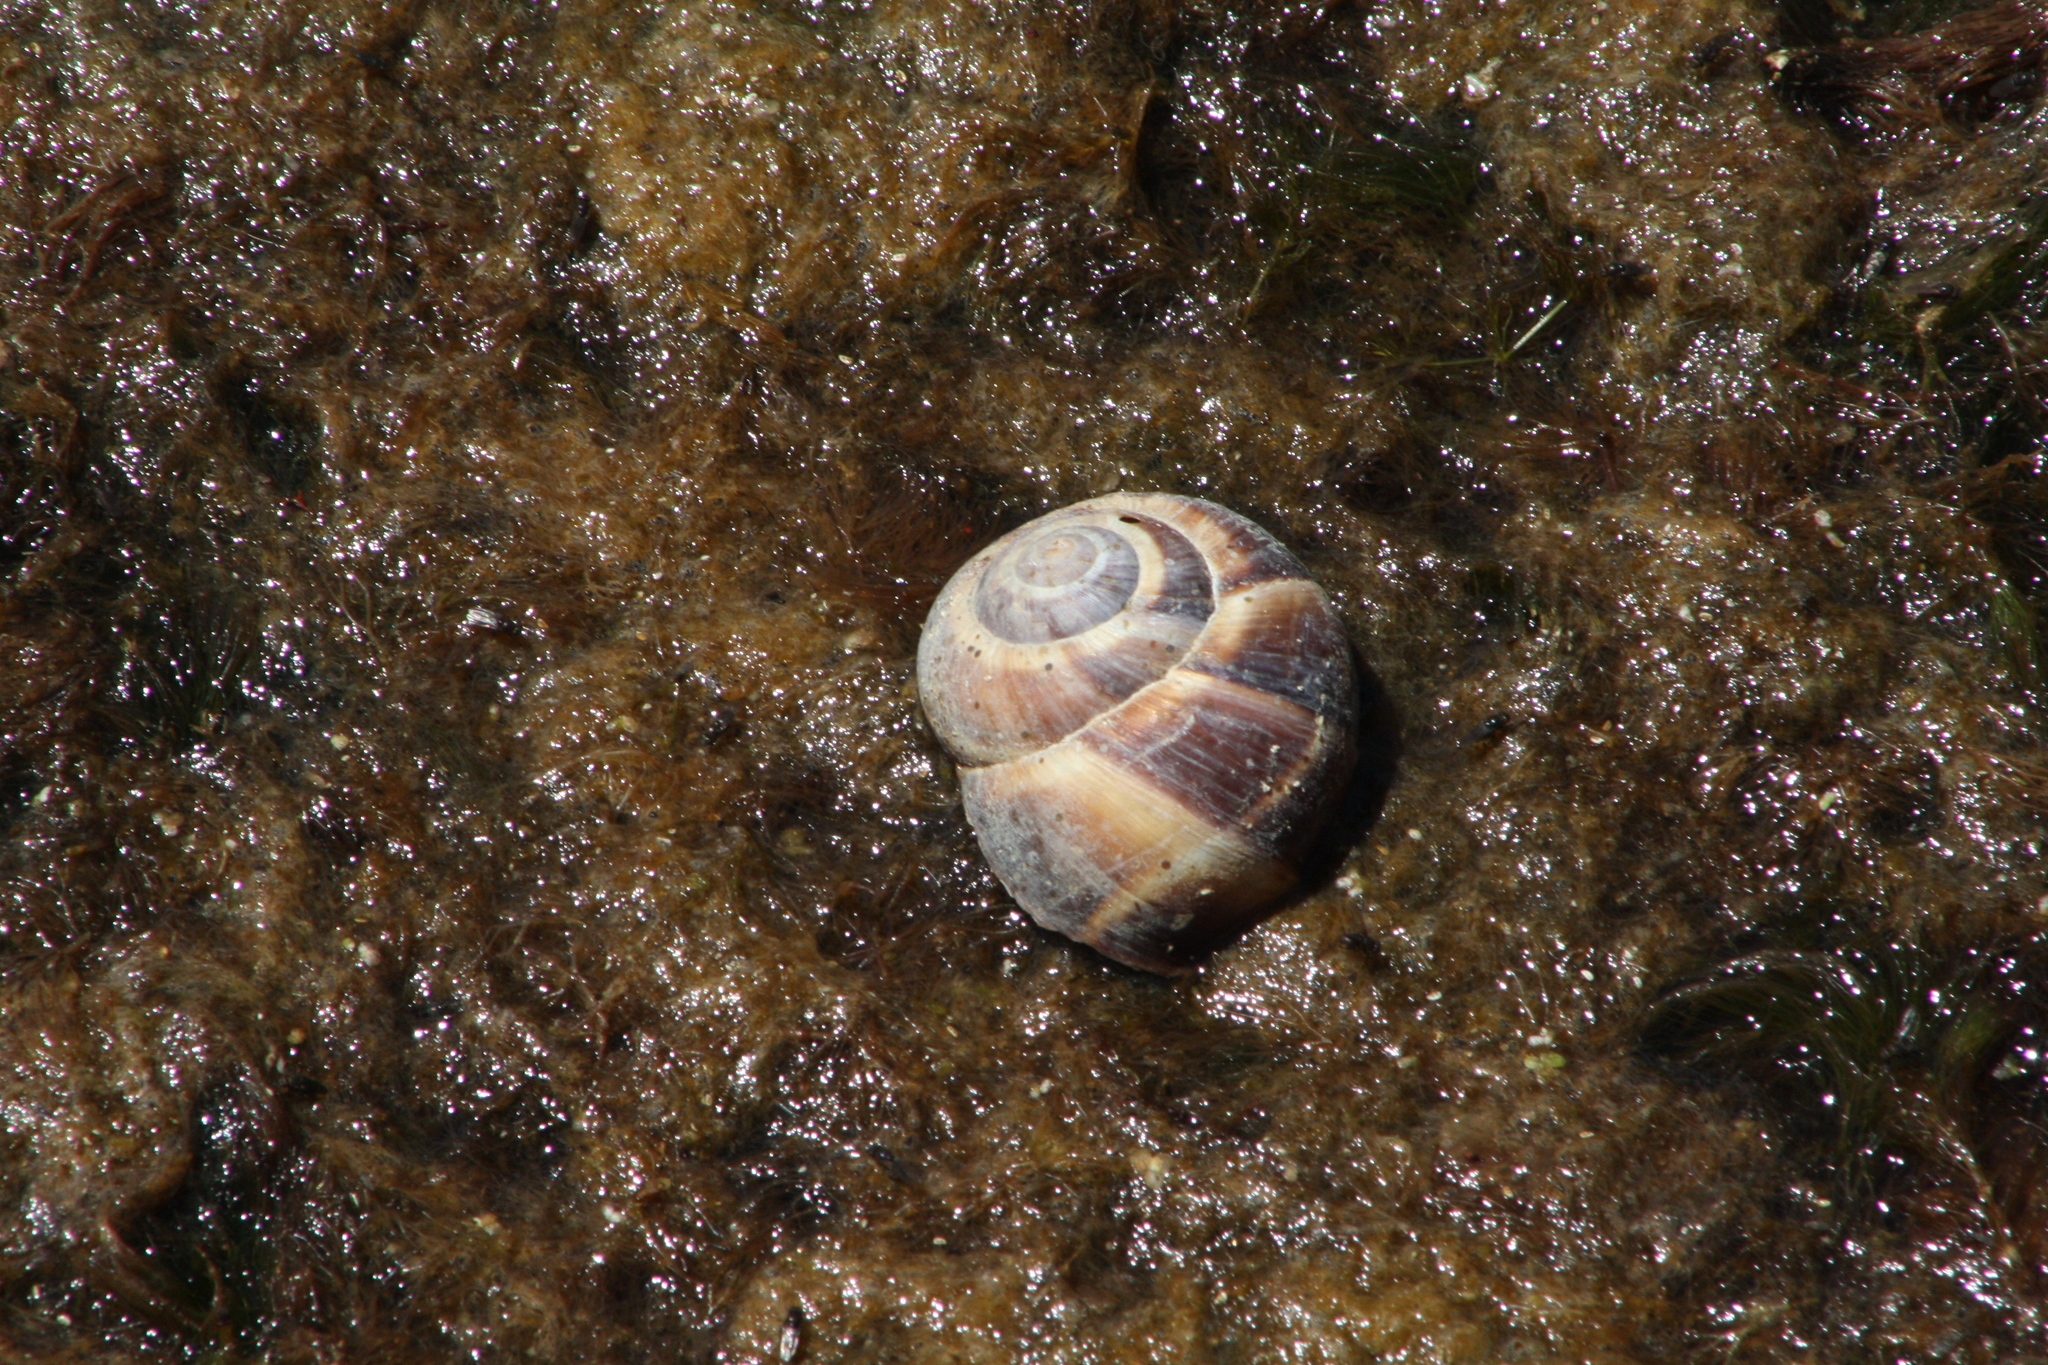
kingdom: Animalia
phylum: Mollusca
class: Gastropoda
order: Stylommatophora
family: Helicidae
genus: Helix
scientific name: Helix lucorum
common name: Turkish snail
